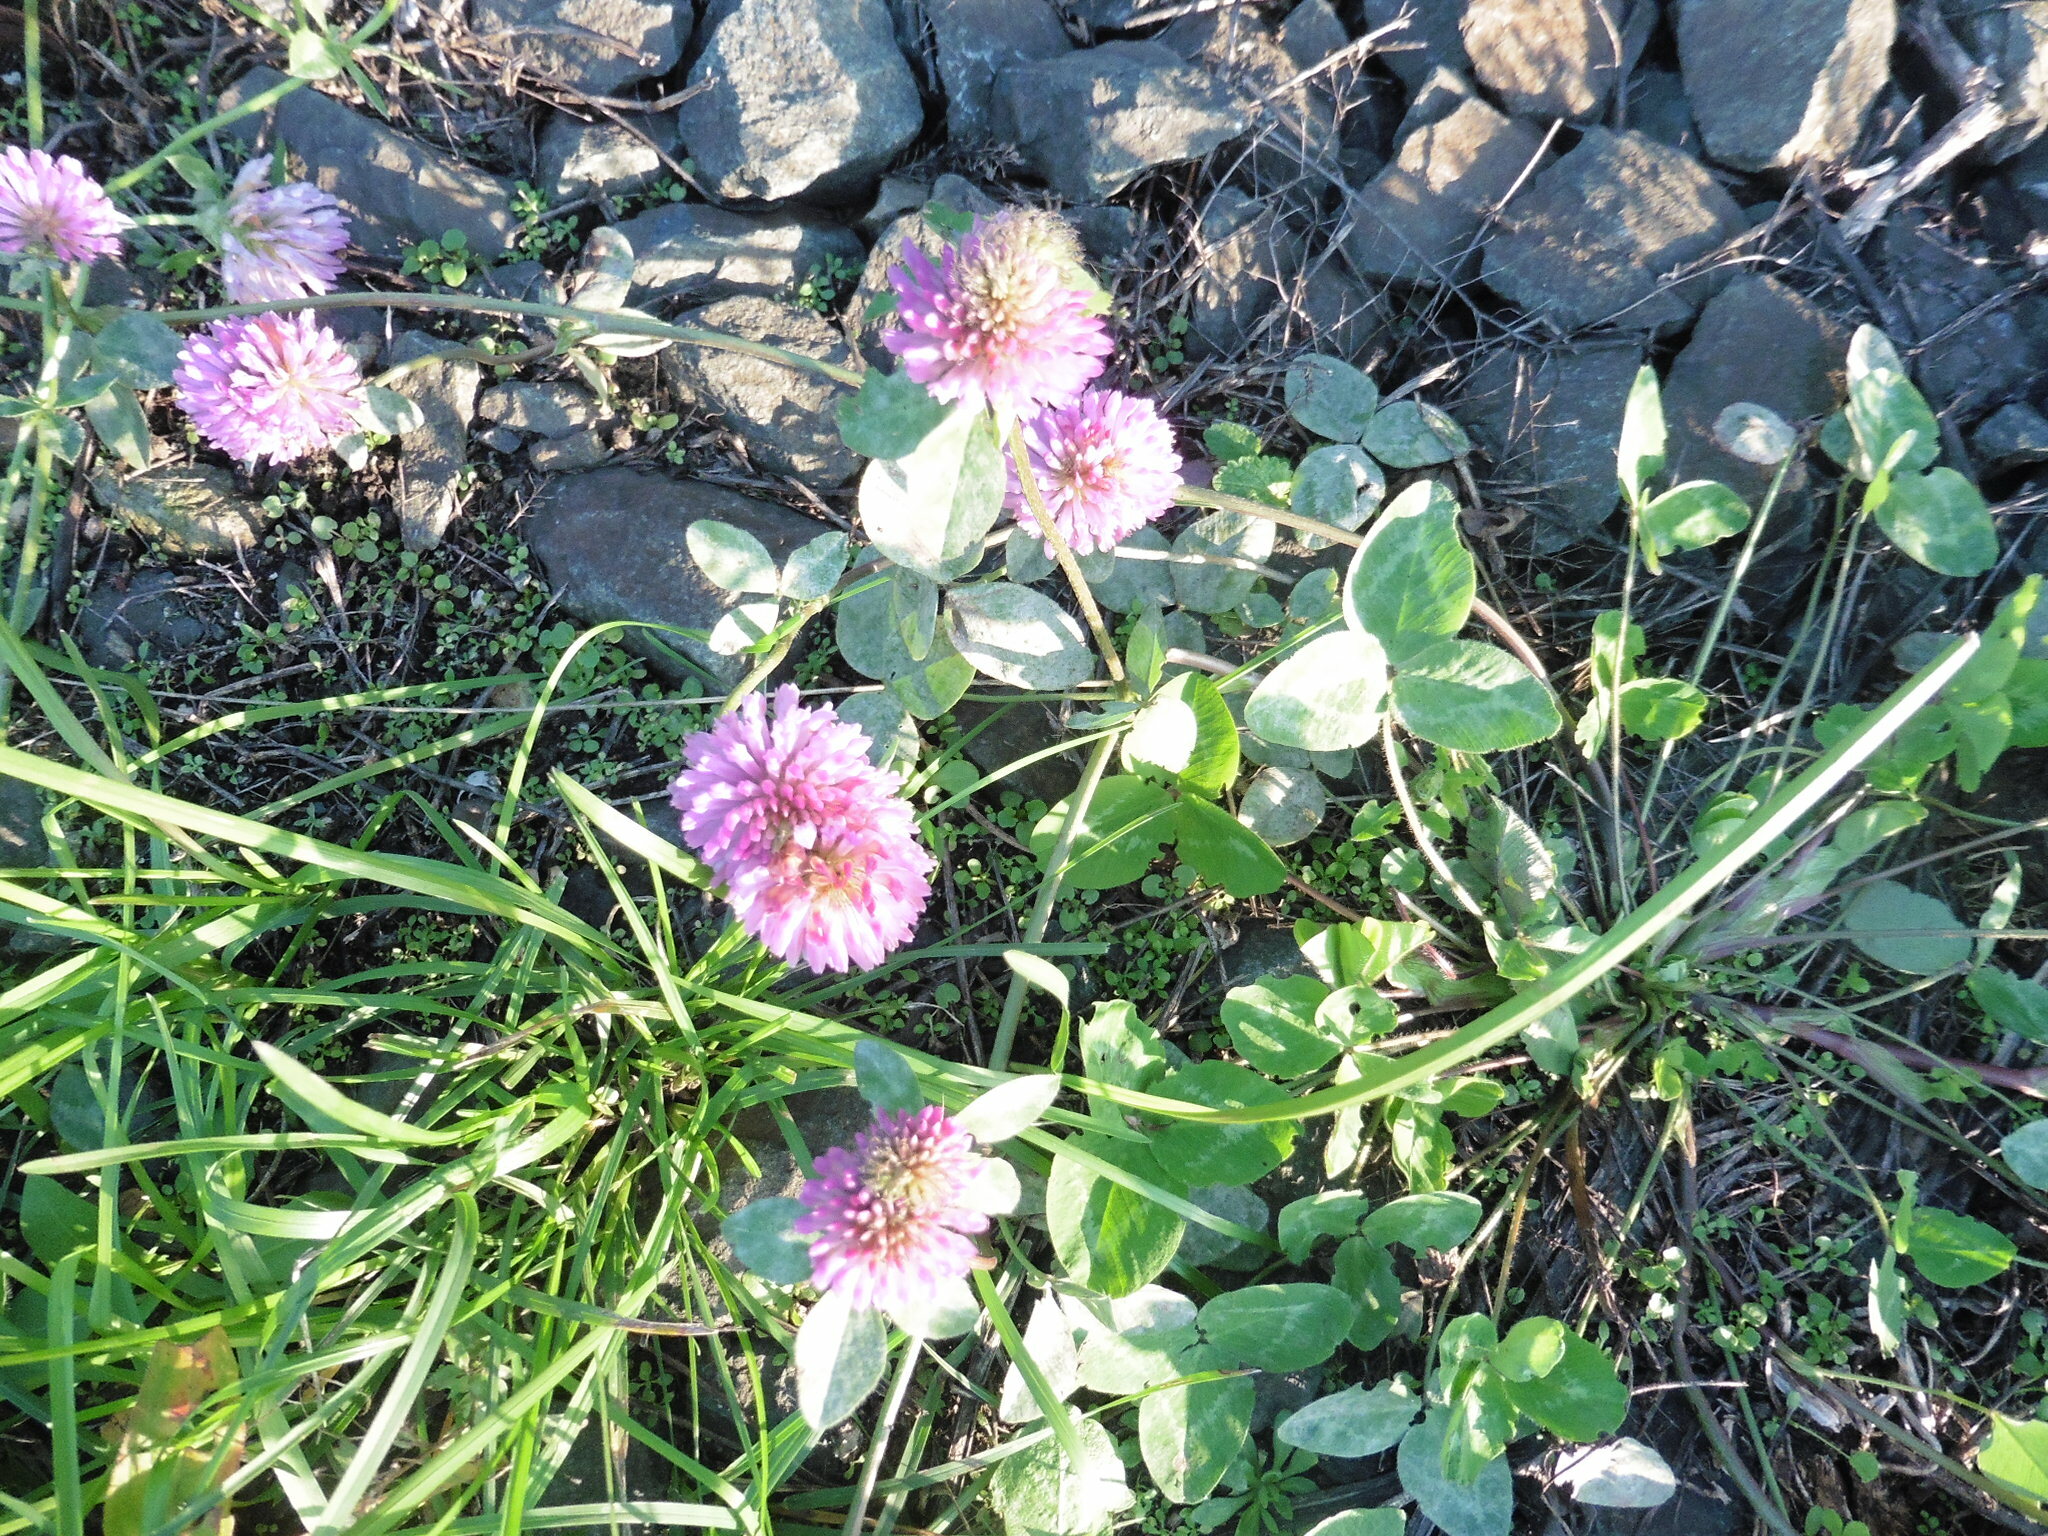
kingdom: Plantae
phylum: Tracheophyta
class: Magnoliopsida
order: Fabales
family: Fabaceae
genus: Trifolium
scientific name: Trifolium pratense
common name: Red clover
